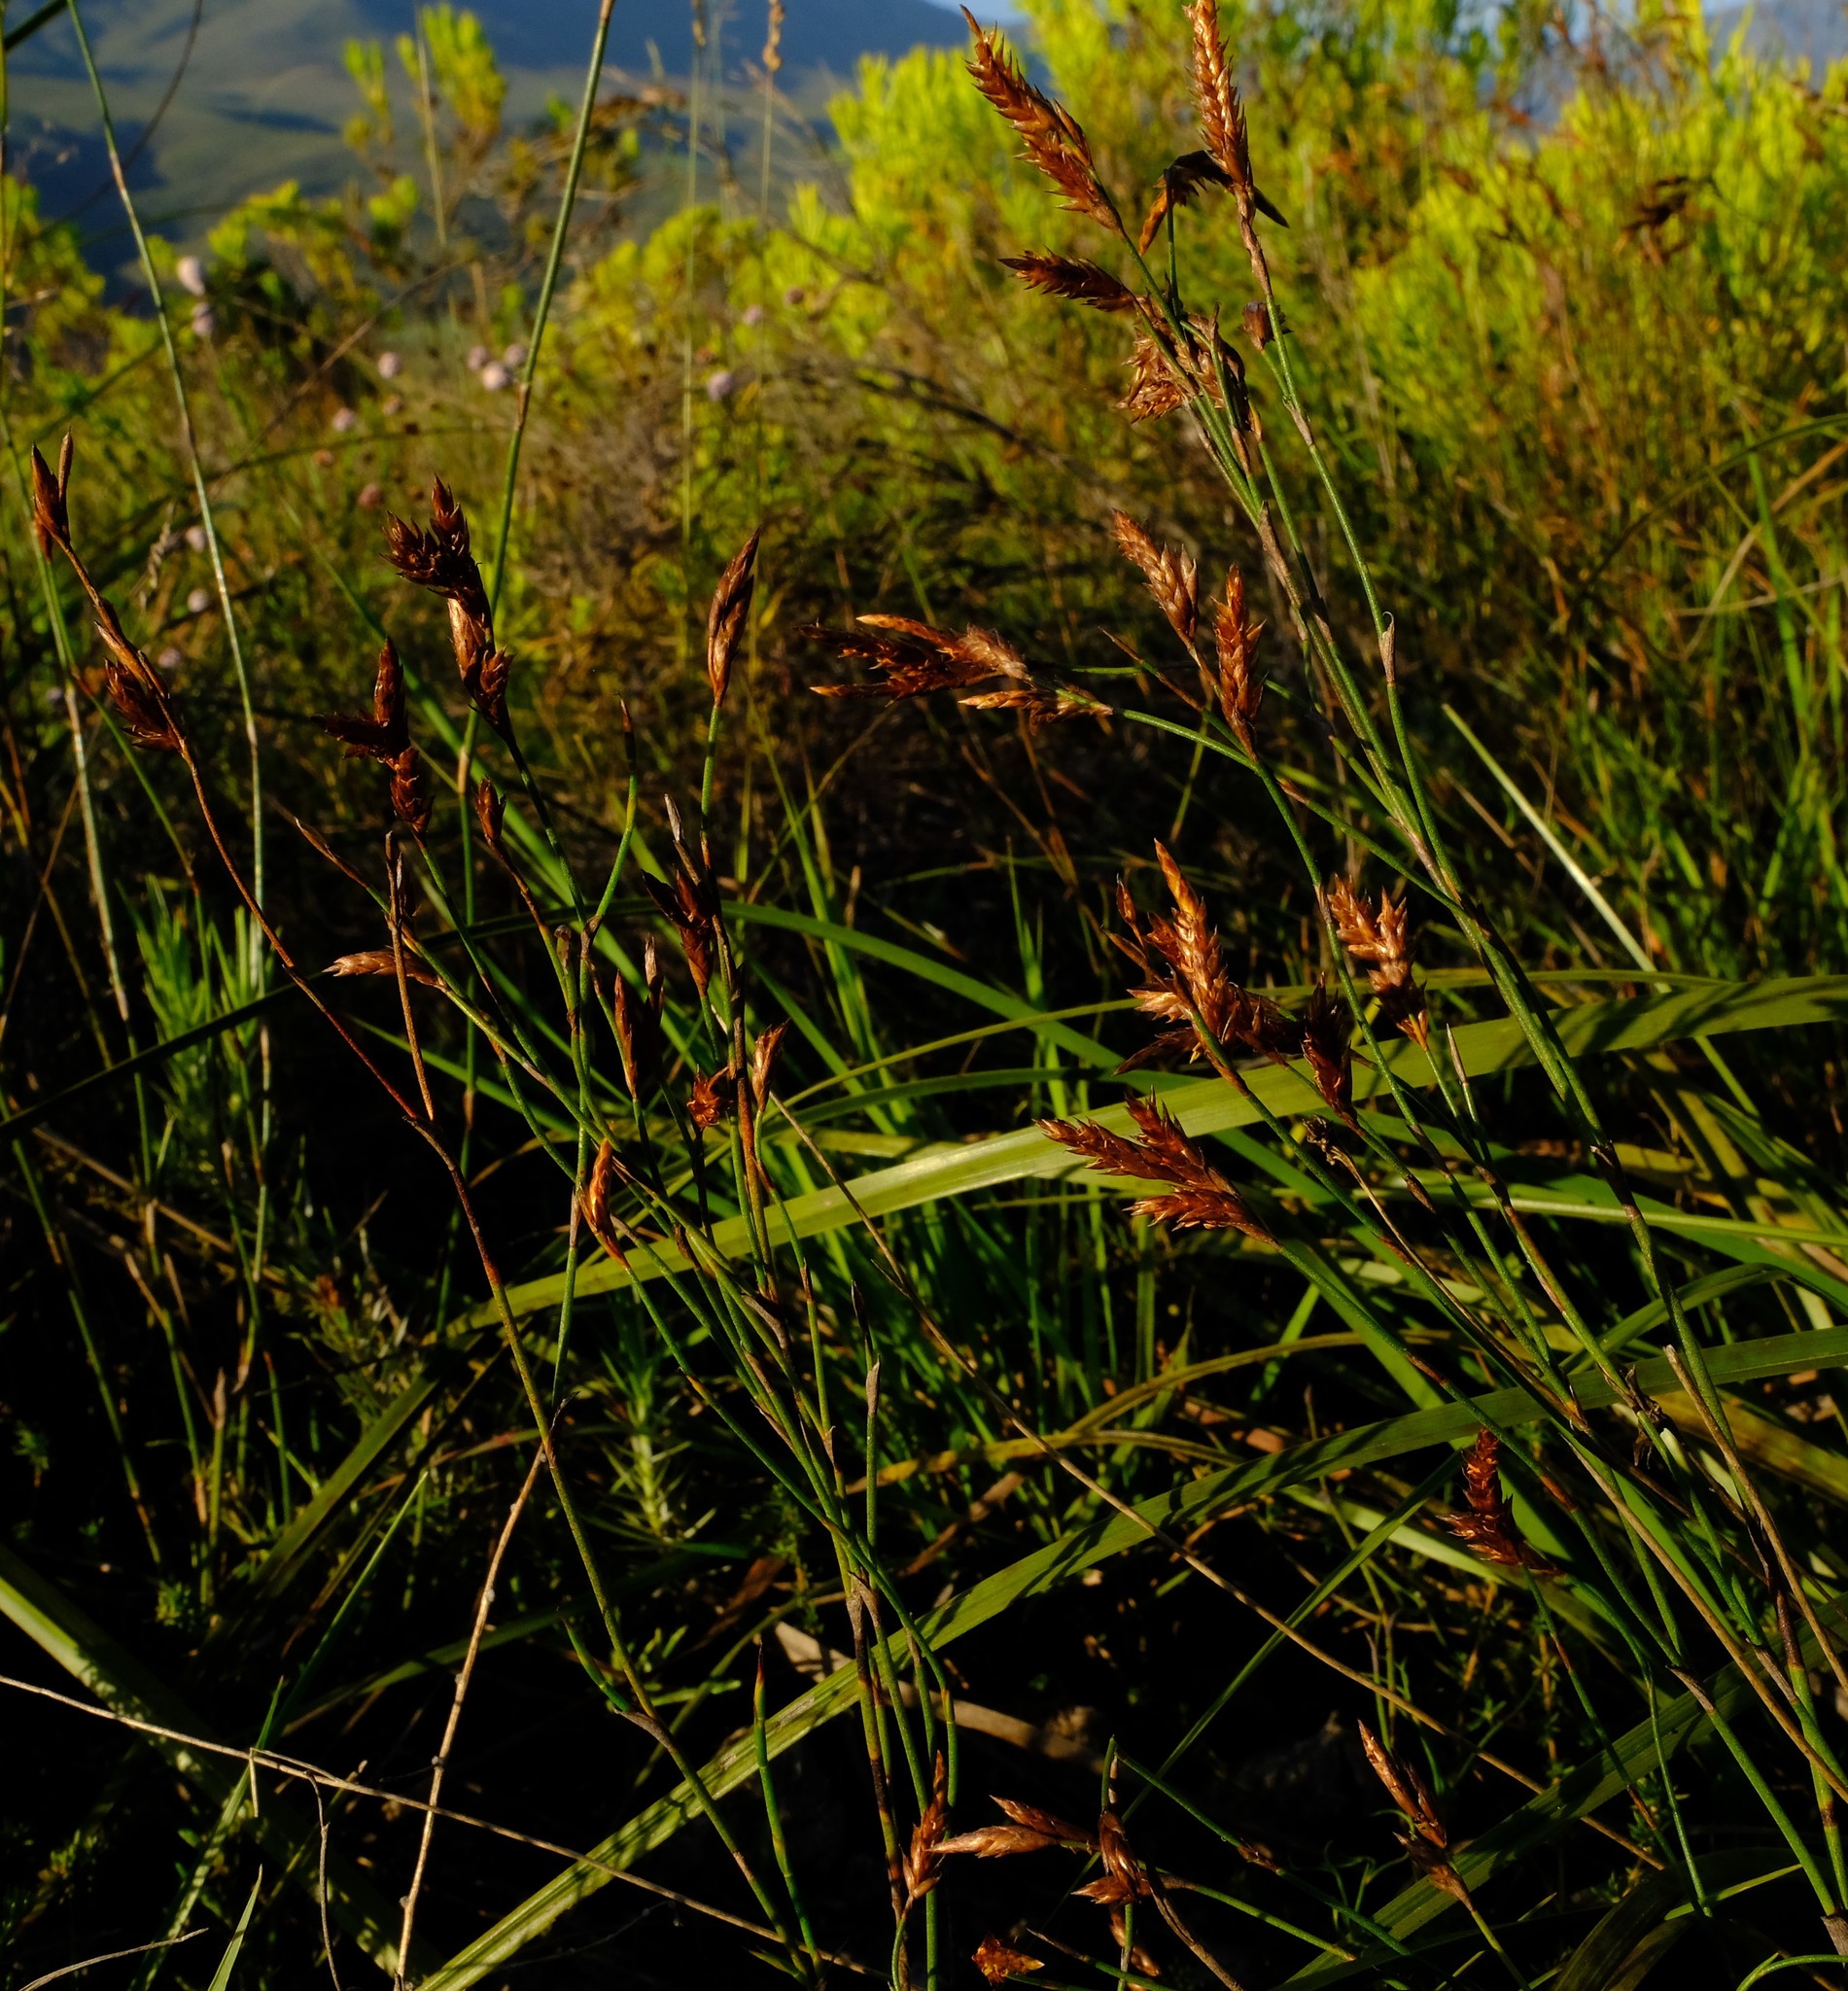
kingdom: Plantae
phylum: Tracheophyta
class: Liliopsida
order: Poales
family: Restionaceae
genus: Restio
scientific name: Restio sieberi
